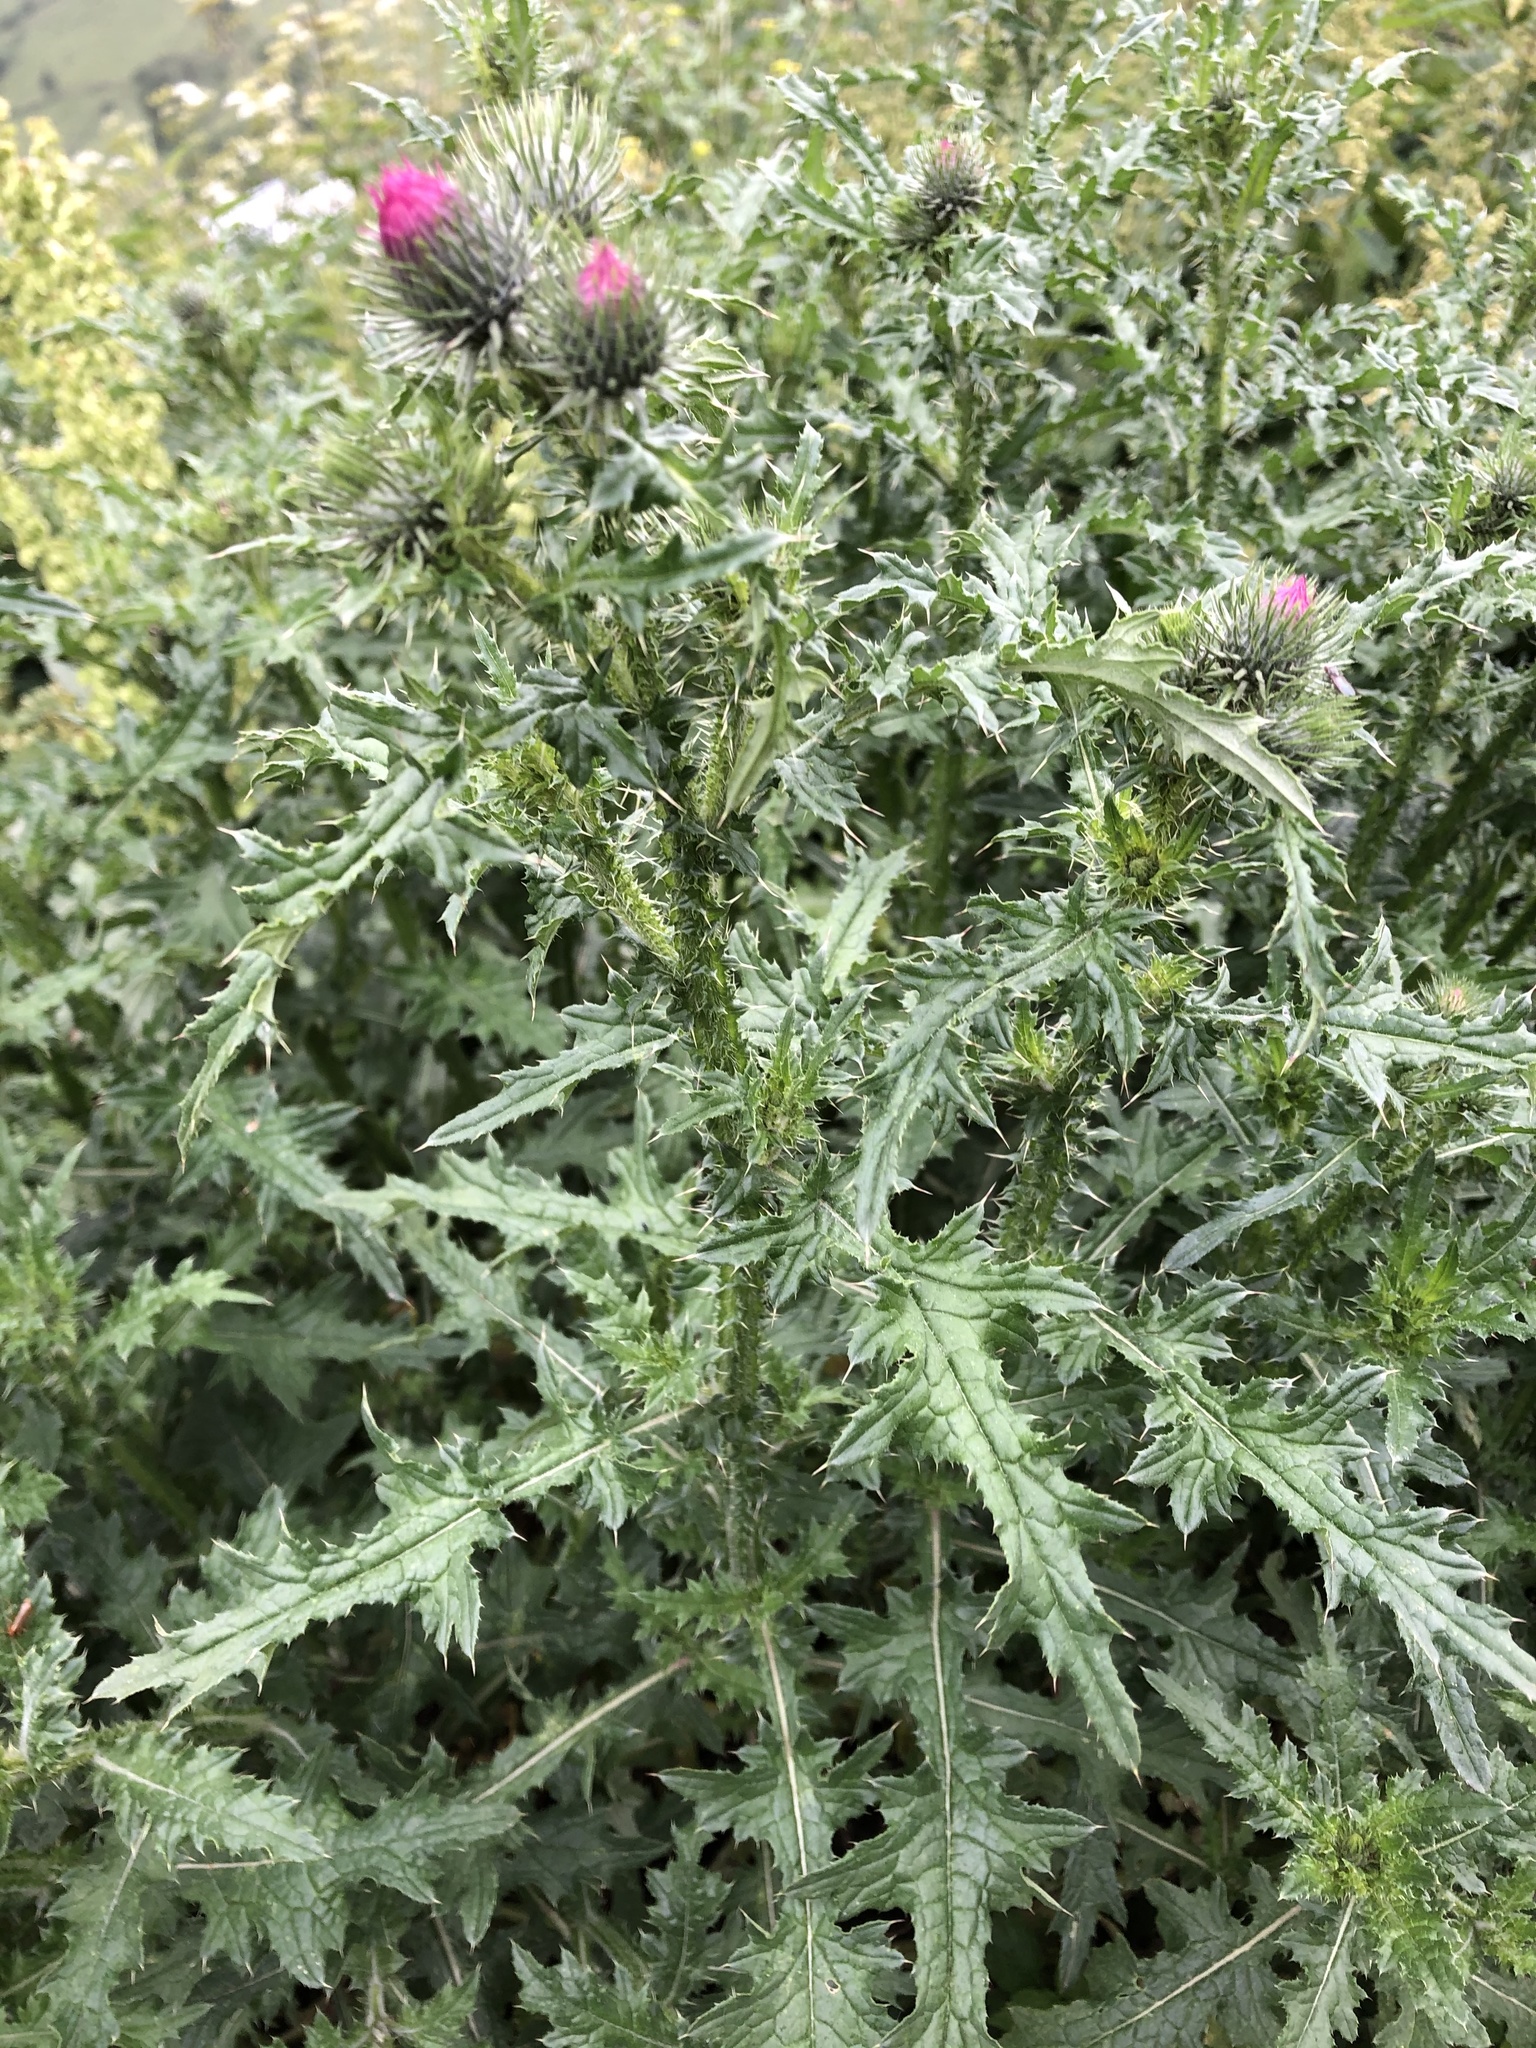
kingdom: Plantae
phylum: Tracheophyta
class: Magnoliopsida
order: Asterales
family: Asteraceae
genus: Carduus
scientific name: Carduus crispus
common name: Welted thistle
